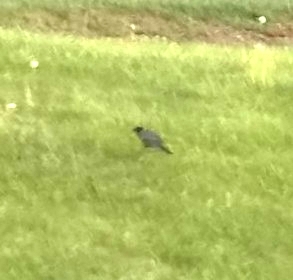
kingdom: Animalia
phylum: Chordata
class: Aves
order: Passeriformes
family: Turdidae
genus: Turdus
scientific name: Turdus migratorius
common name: American robin
